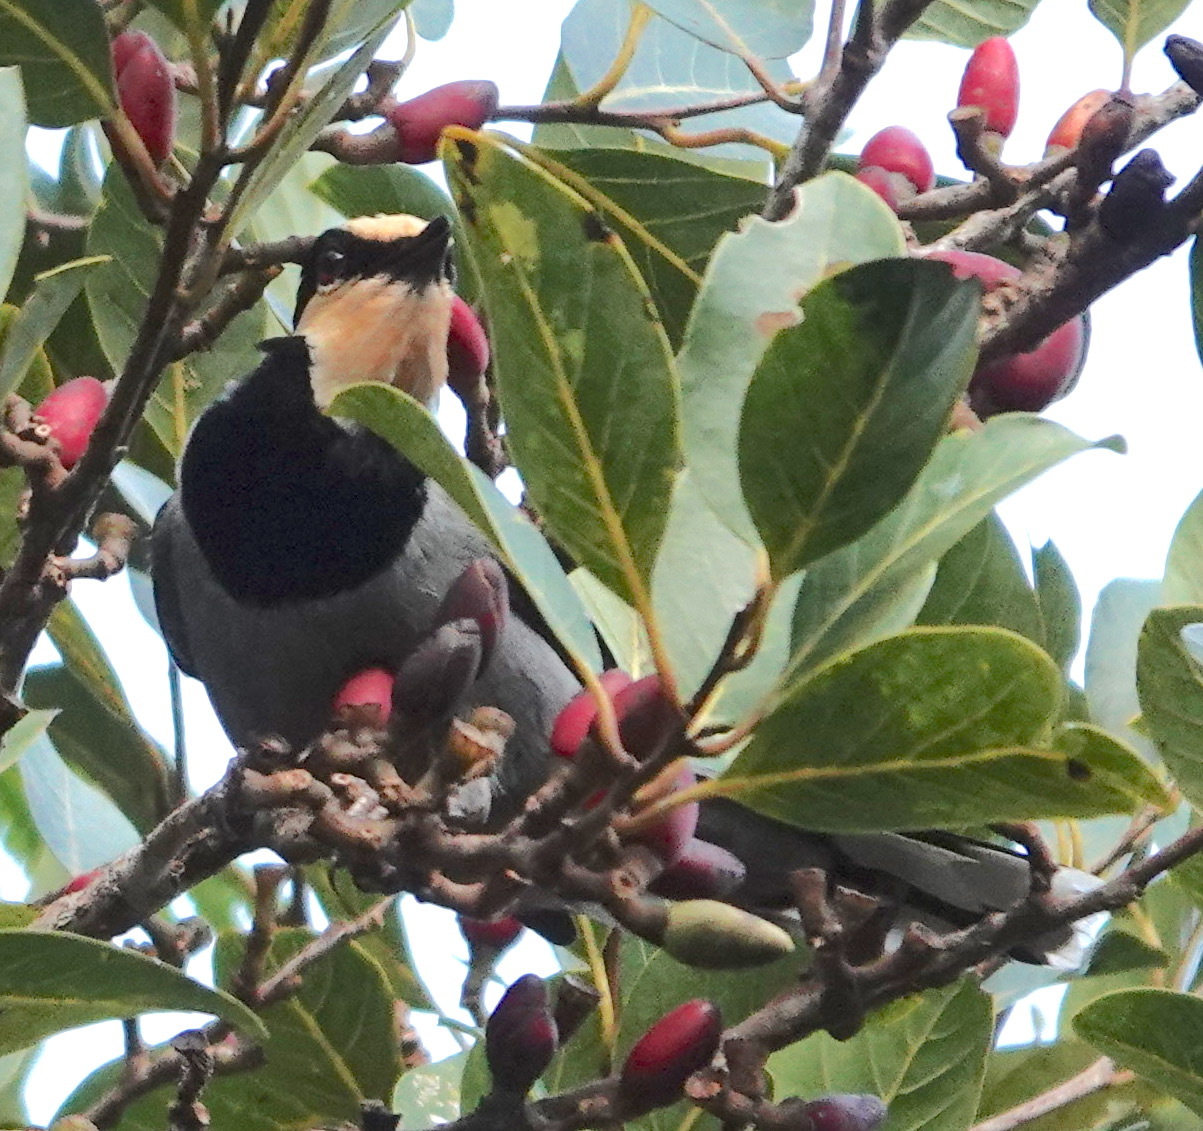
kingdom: Animalia
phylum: Chordata
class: Aves
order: Passeriformes
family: Turdidae
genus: Chlamydochaera
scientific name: Chlamydochaera jefferyi
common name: Fruithunter
